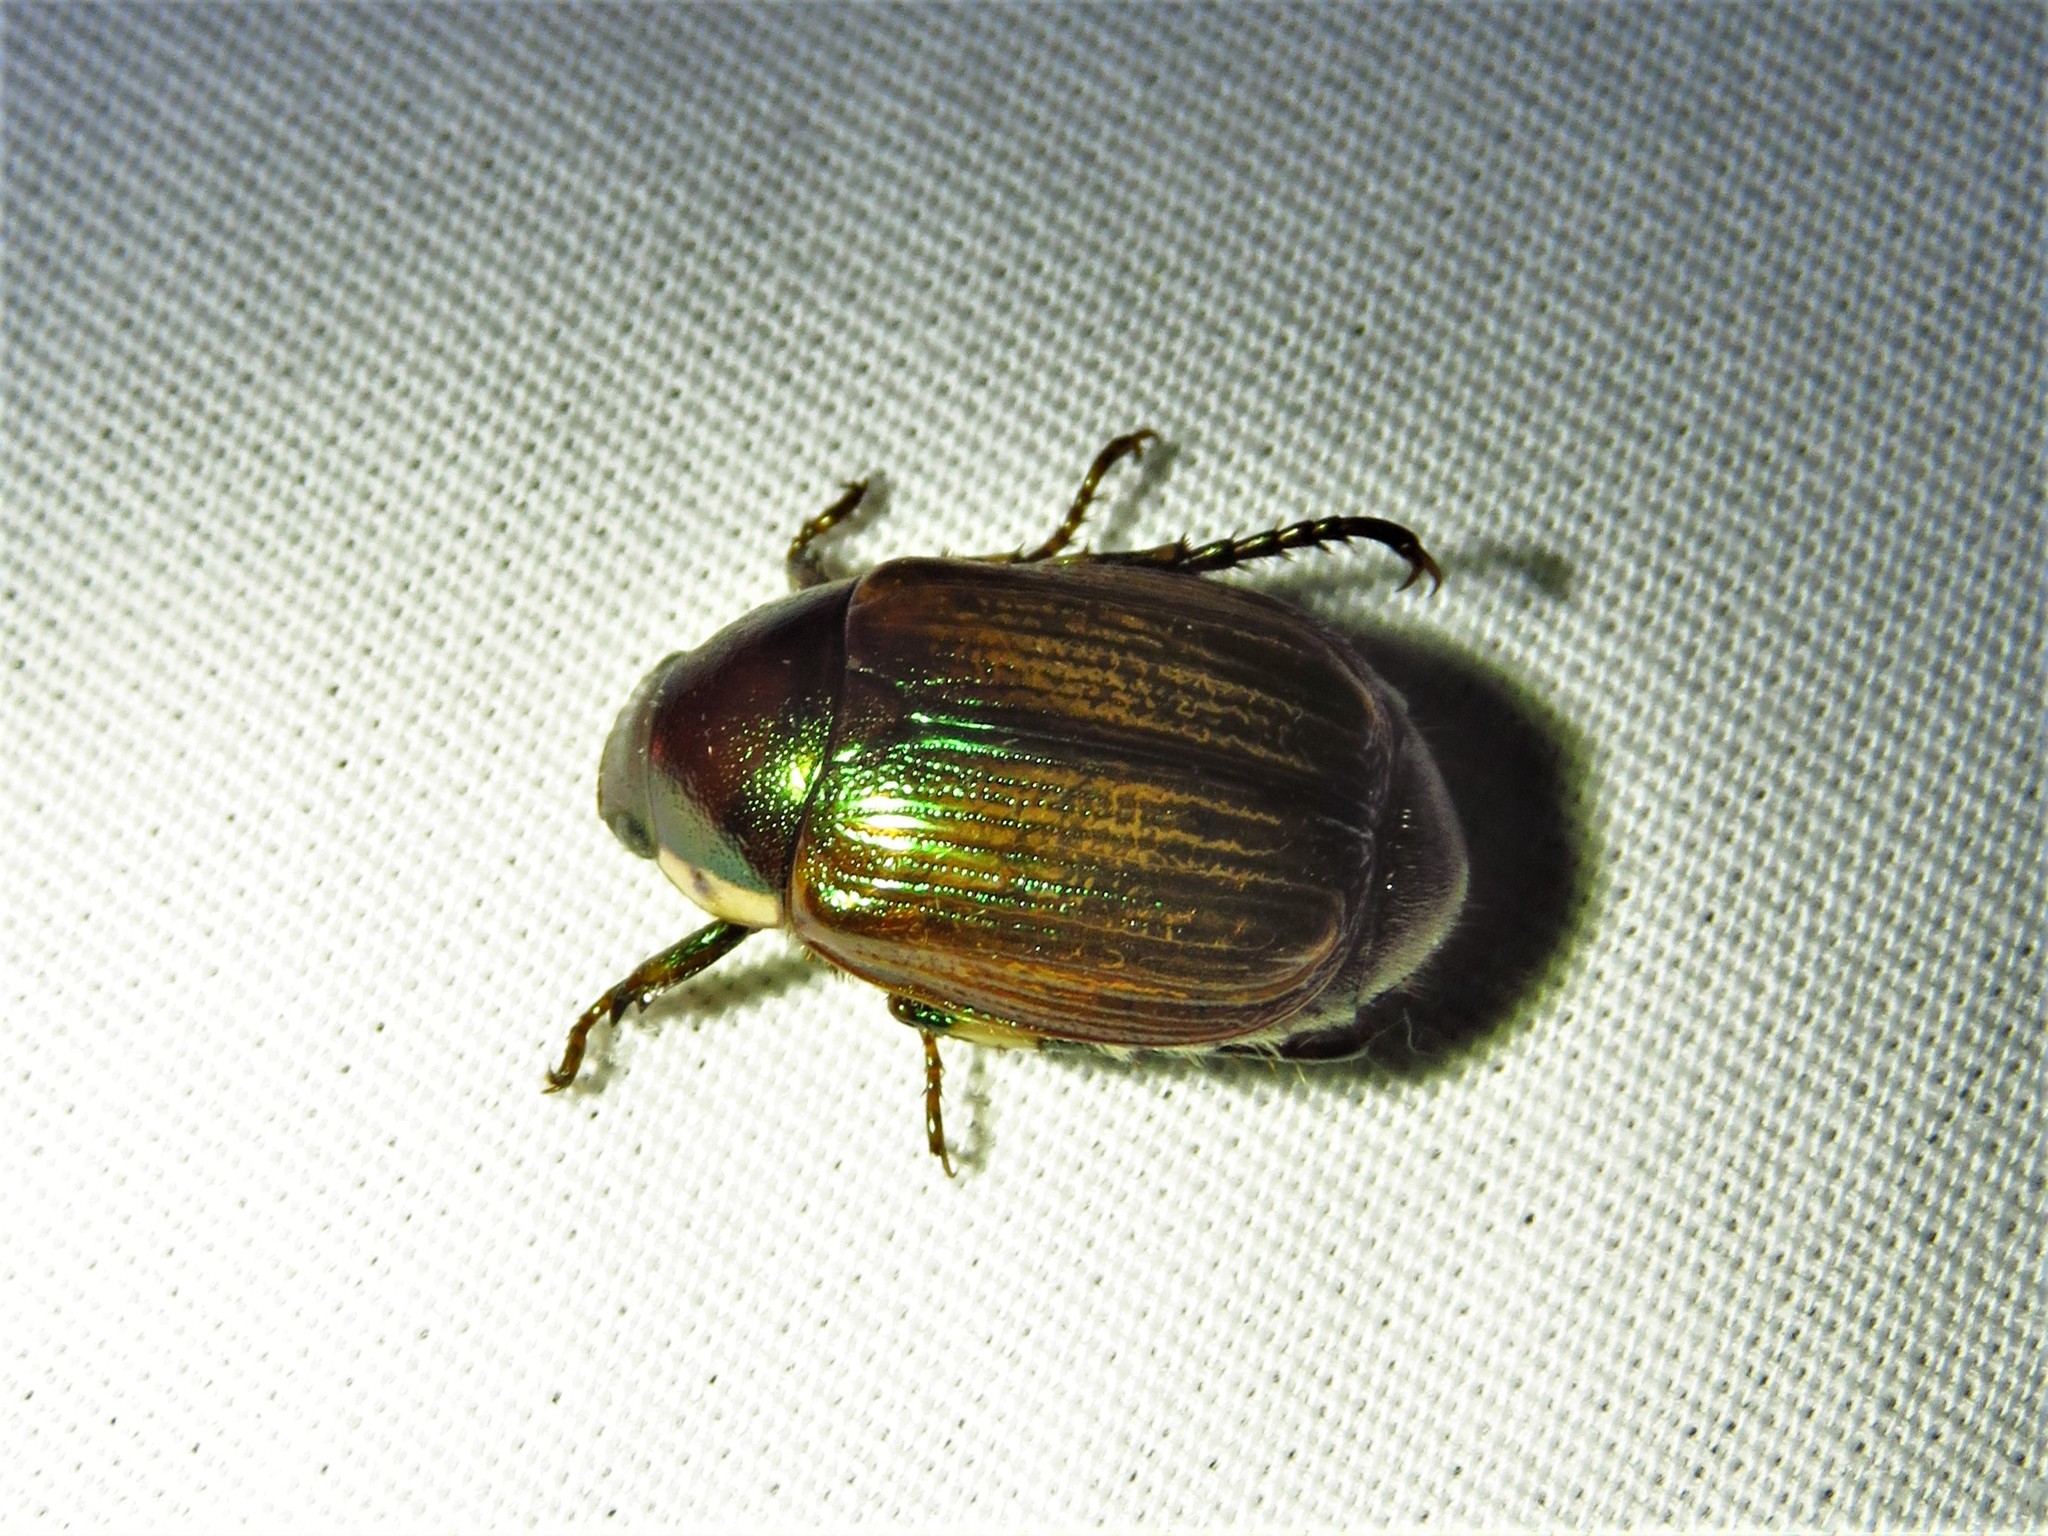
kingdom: Animalia
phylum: Arthropoda
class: Insecta
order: Coleoptera
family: Scarabaeidae
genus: Callistethus
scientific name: Callistethus marginatus
